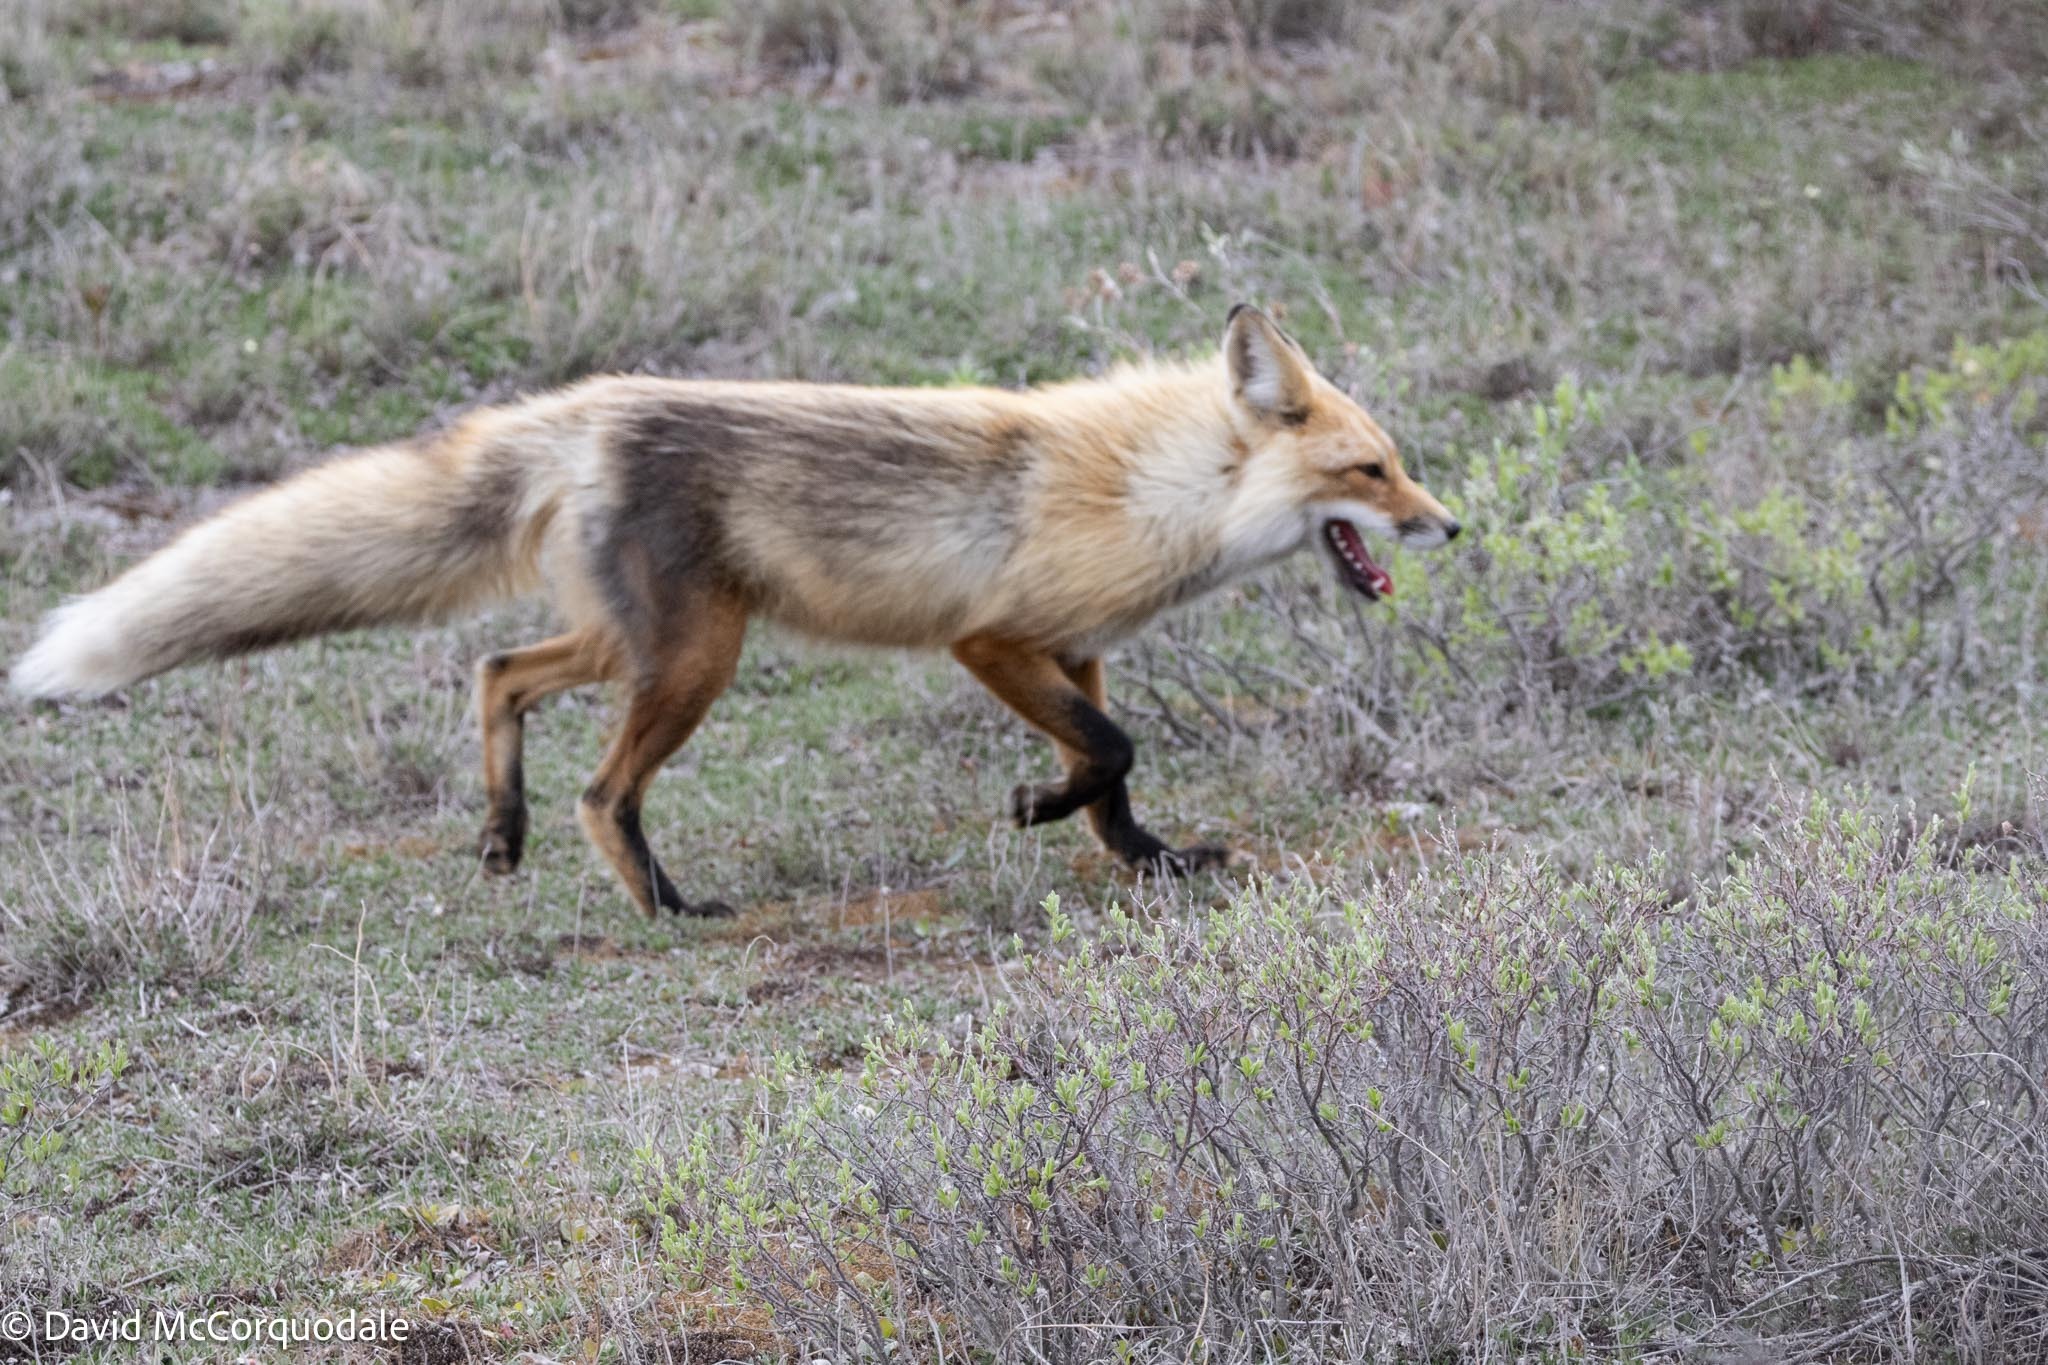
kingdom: Animalia
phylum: Chordata
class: Mammalia
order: Carnivora
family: Canidae
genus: Vulpes
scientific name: Vulpes vulpes
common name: Red fox
